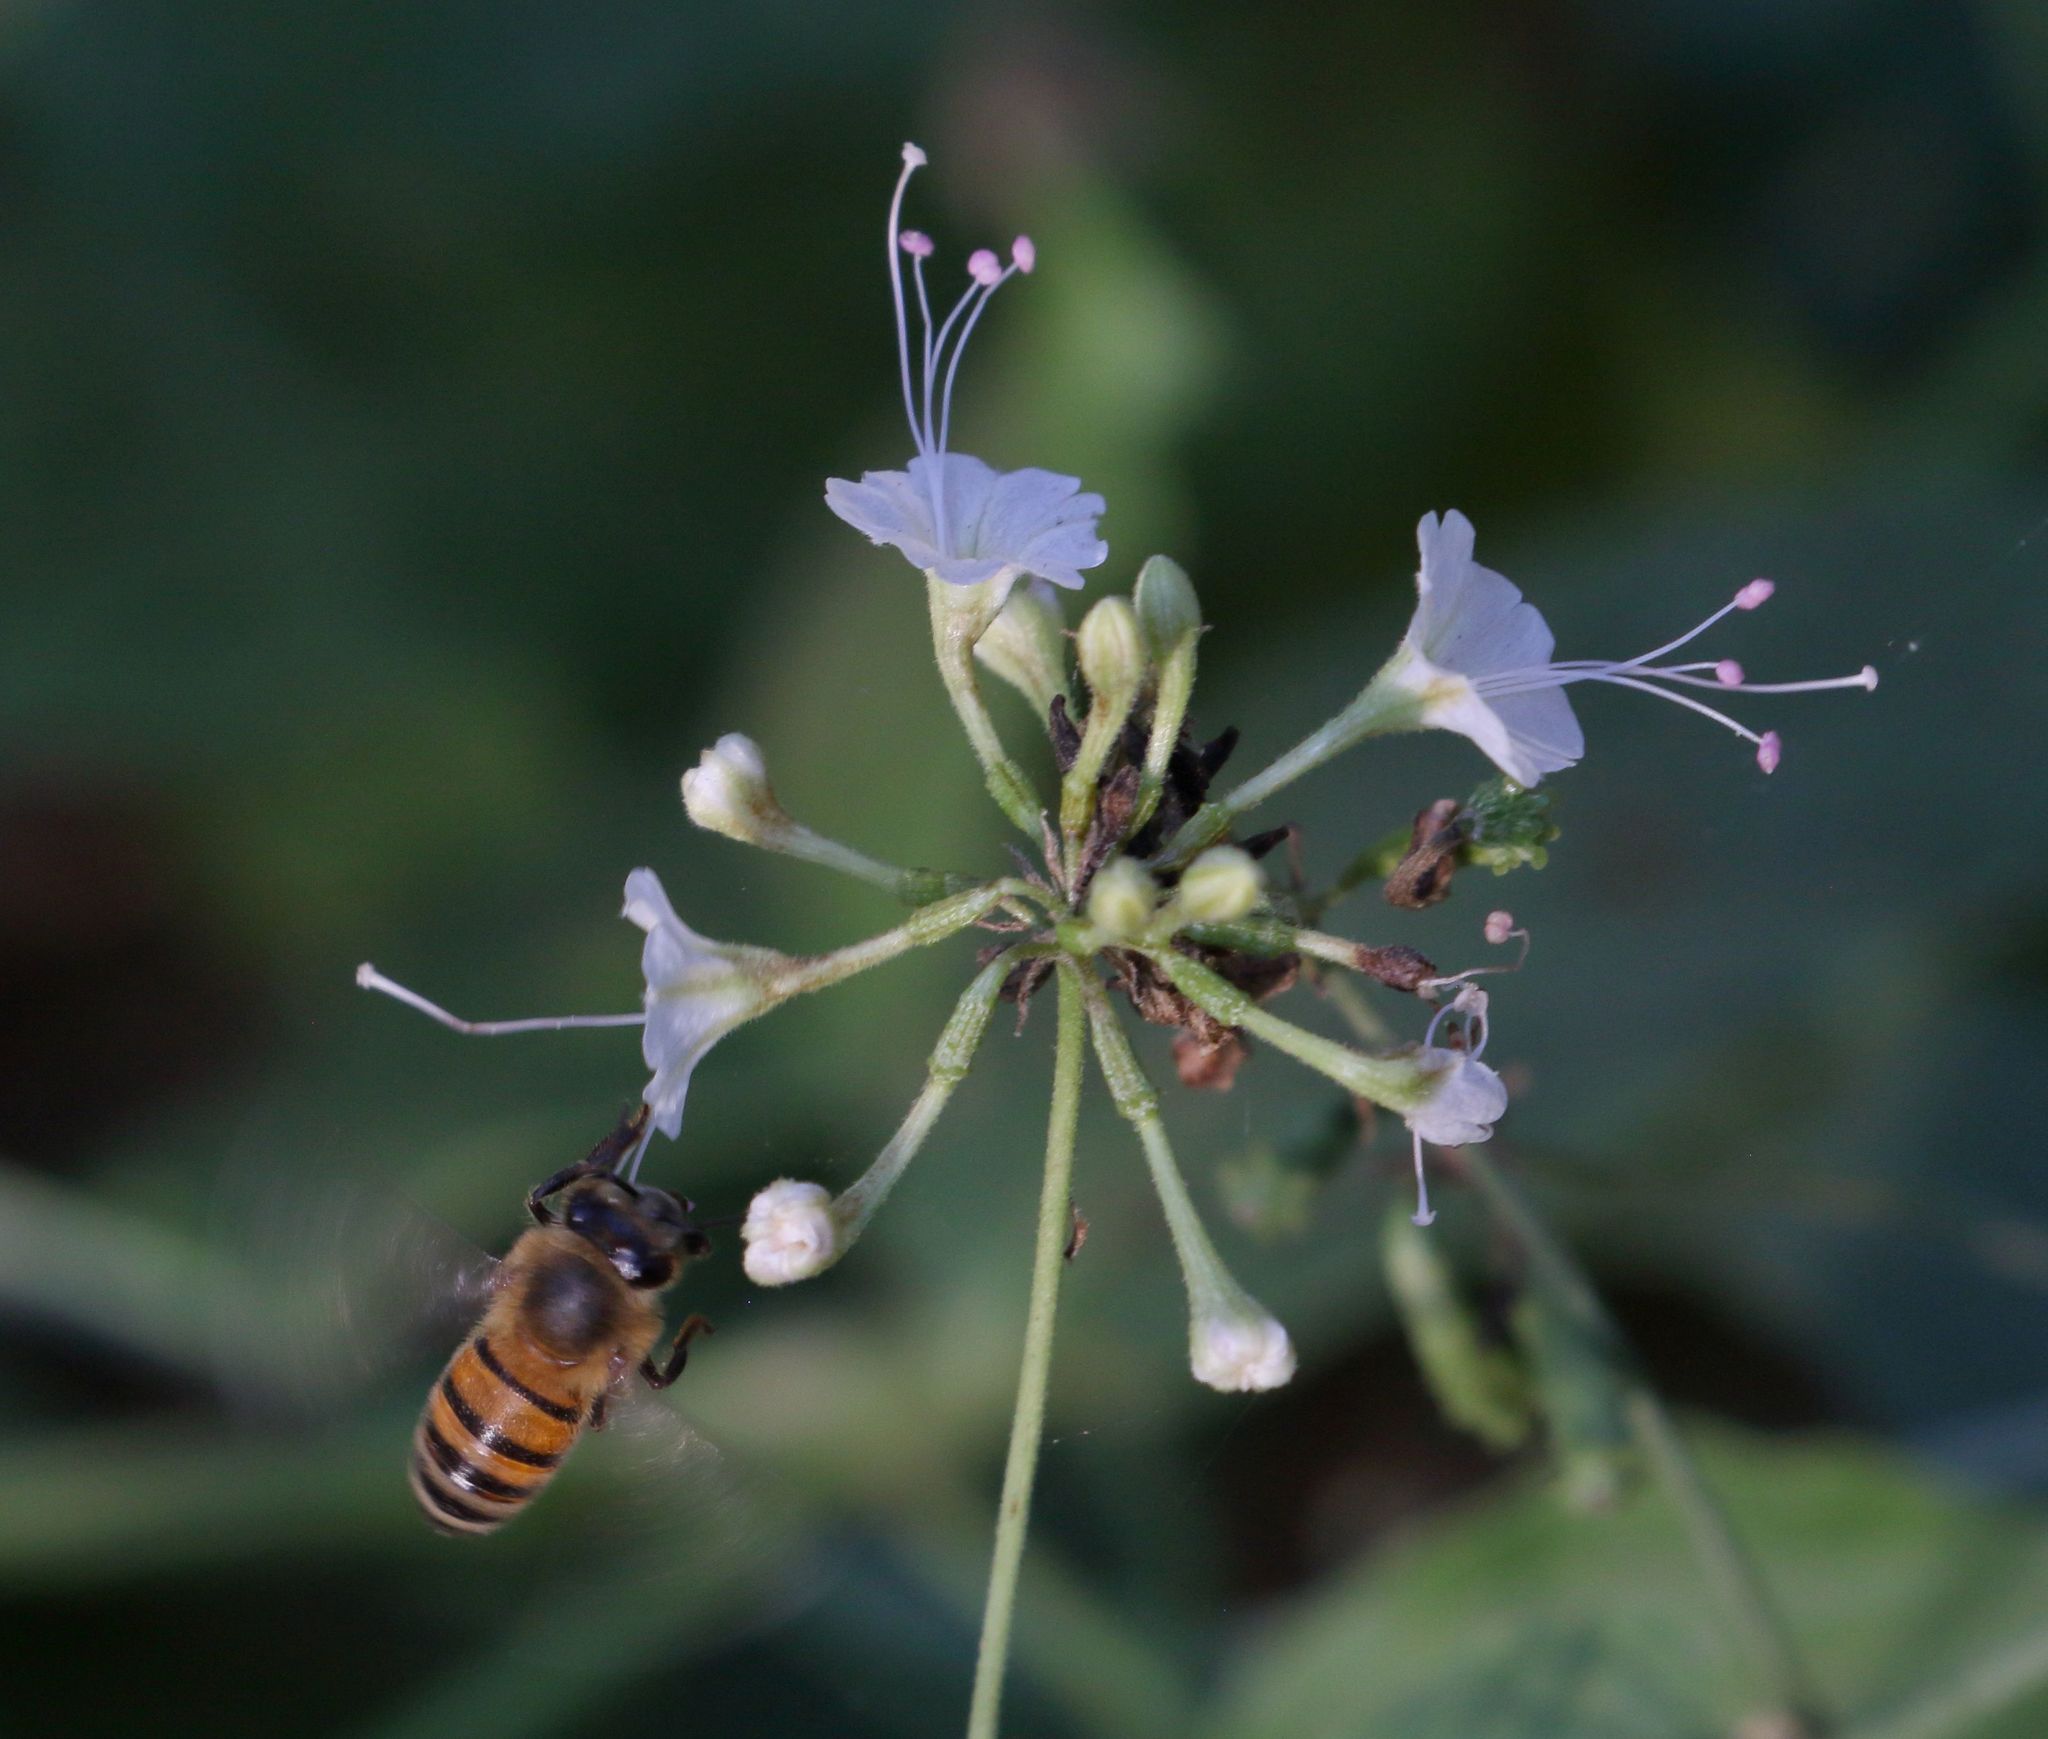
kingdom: Animalia
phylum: Arthropoda
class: Insecta
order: Hymenoptera
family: Apidae
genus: Apis
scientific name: Apis mellifera
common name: Honey bee
